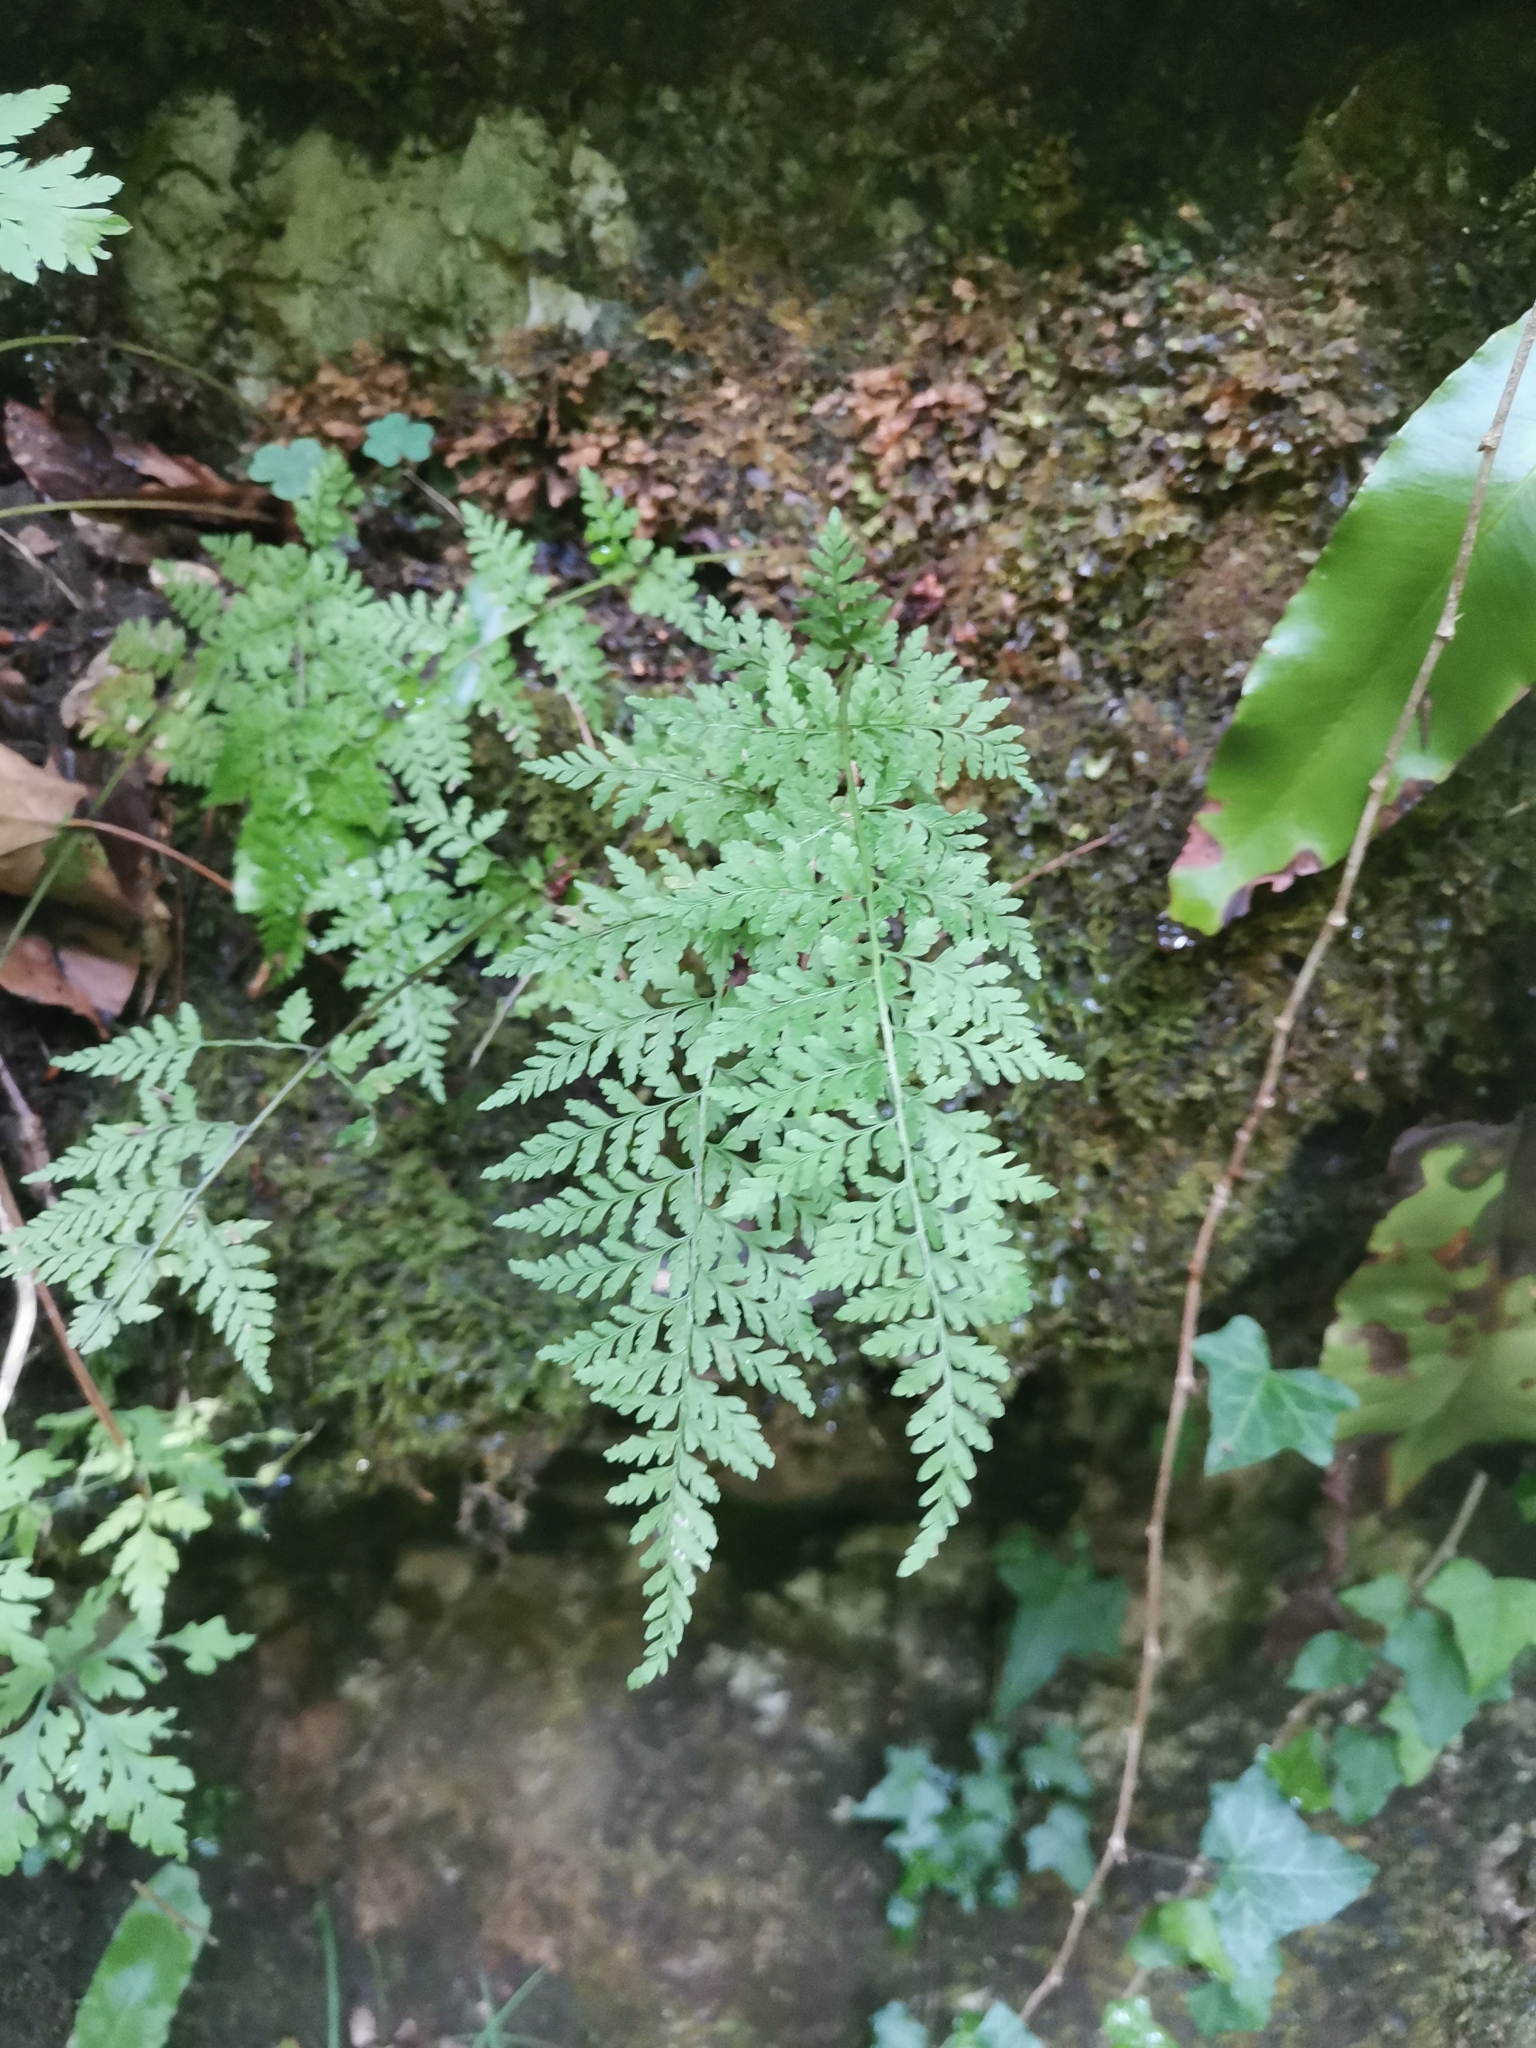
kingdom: Plantae
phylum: Tracheophyta
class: Polypodiopsida
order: Polypodiales
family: Cystopteridaceae
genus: Cystopteris
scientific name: Cystopteris fragilis
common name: Brittle bladder fern
